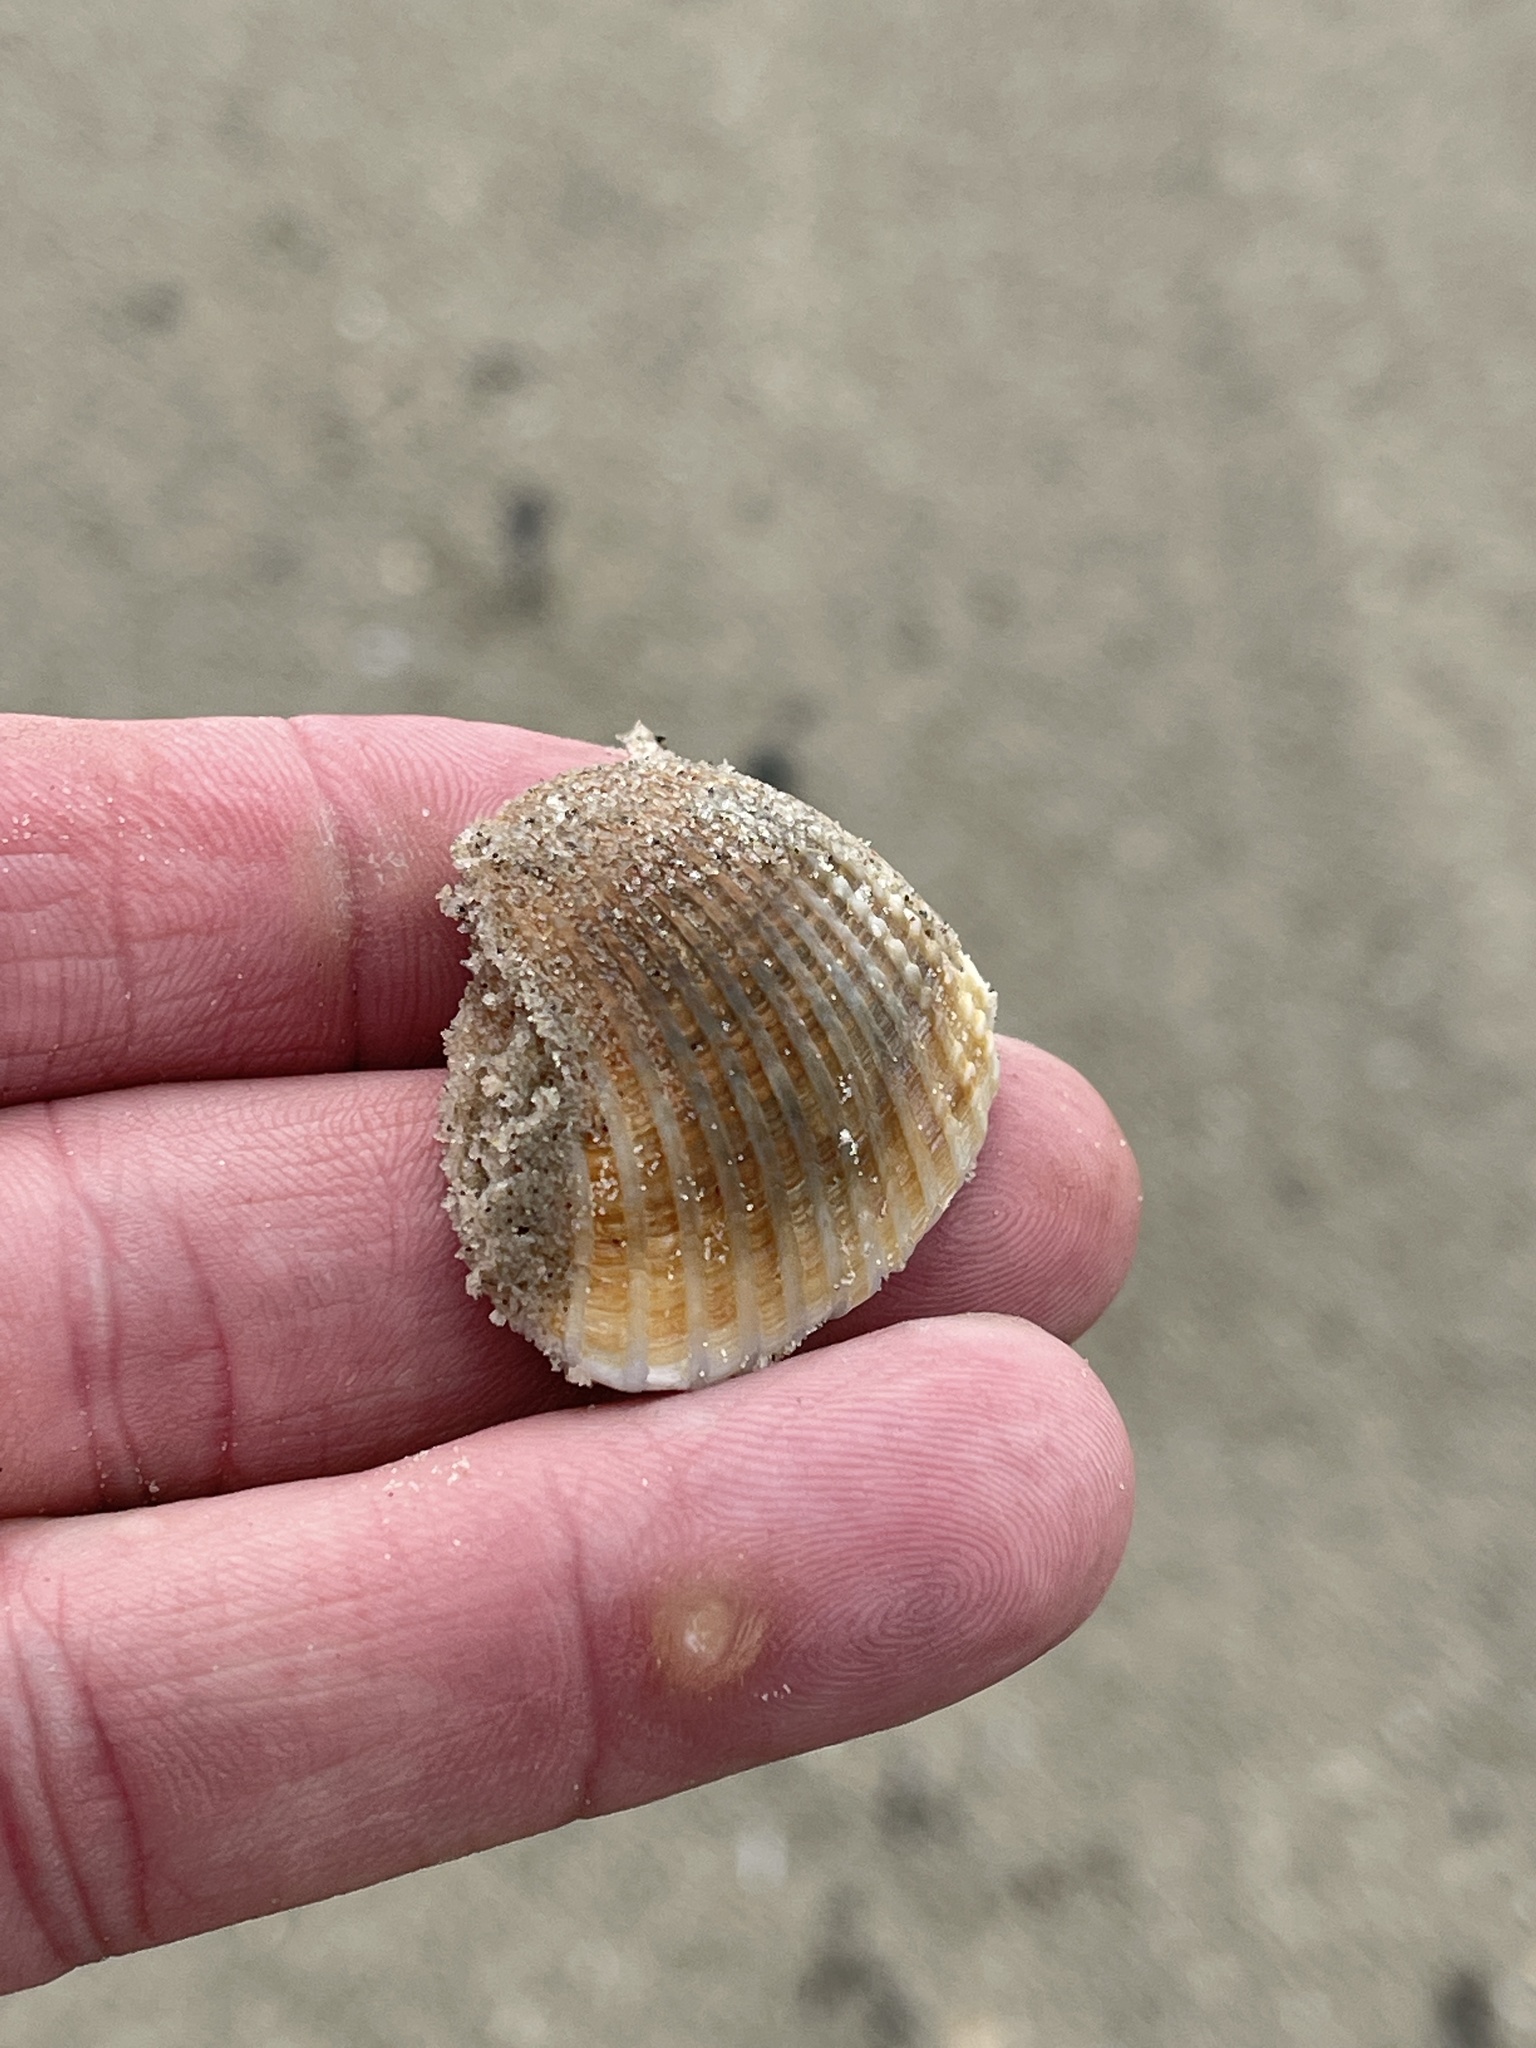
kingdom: Animalia
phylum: Mollusca
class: Bivalvia
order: Arcida
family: Arcidae
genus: Anadara
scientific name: Anadara brasiliana
